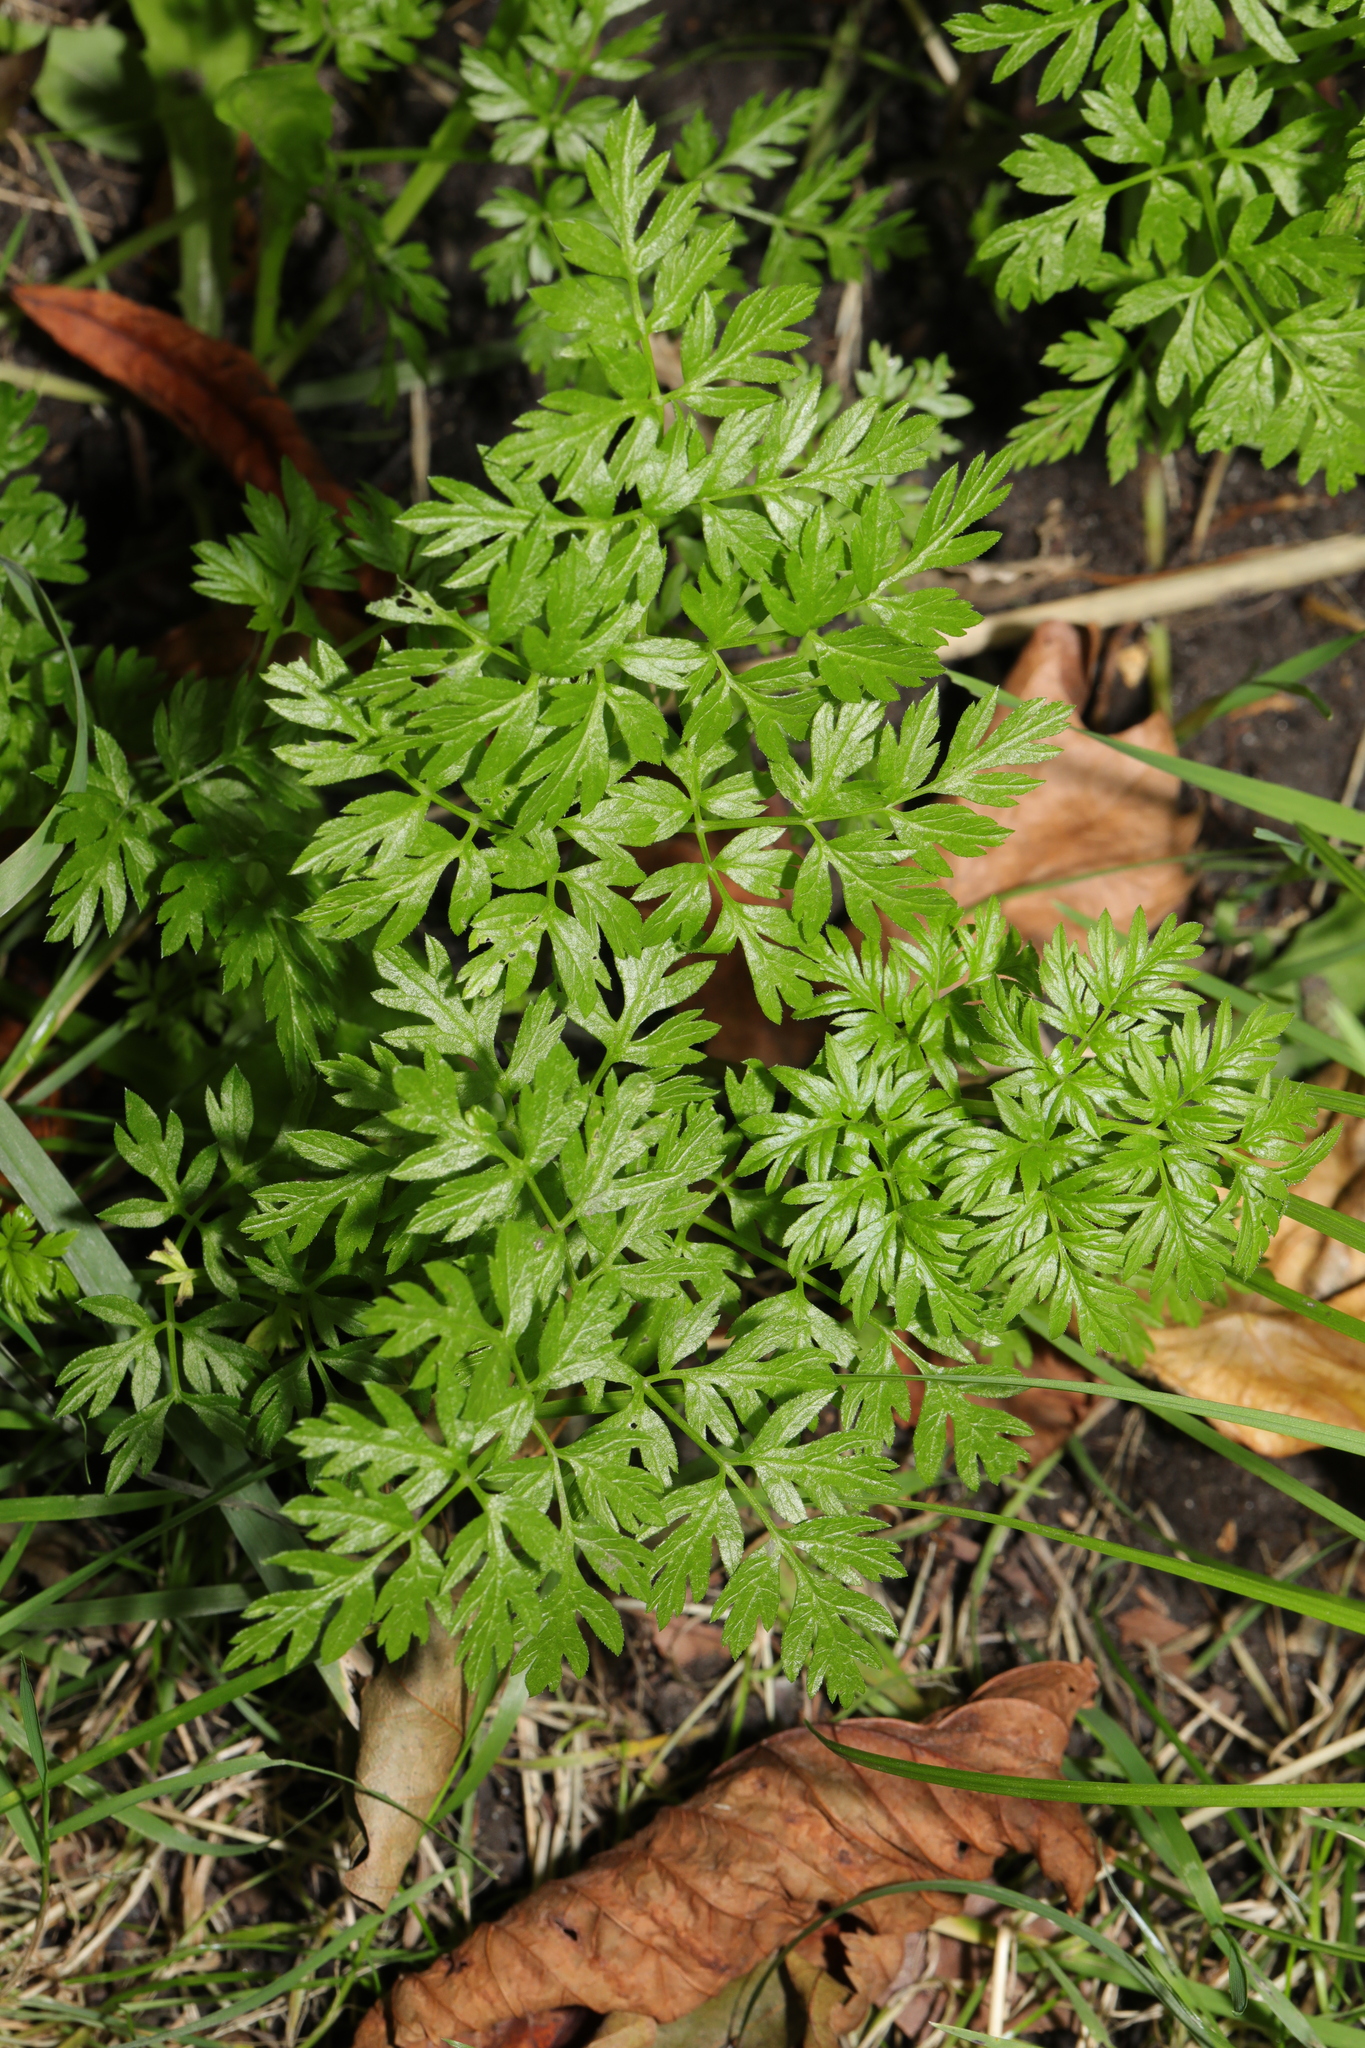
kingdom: Plantae
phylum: Tracheophyta
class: Magnoliopsida
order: Apiales
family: Apiaceae
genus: Anthriscus
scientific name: Anthriscus sylvestris
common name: Cow parsley
